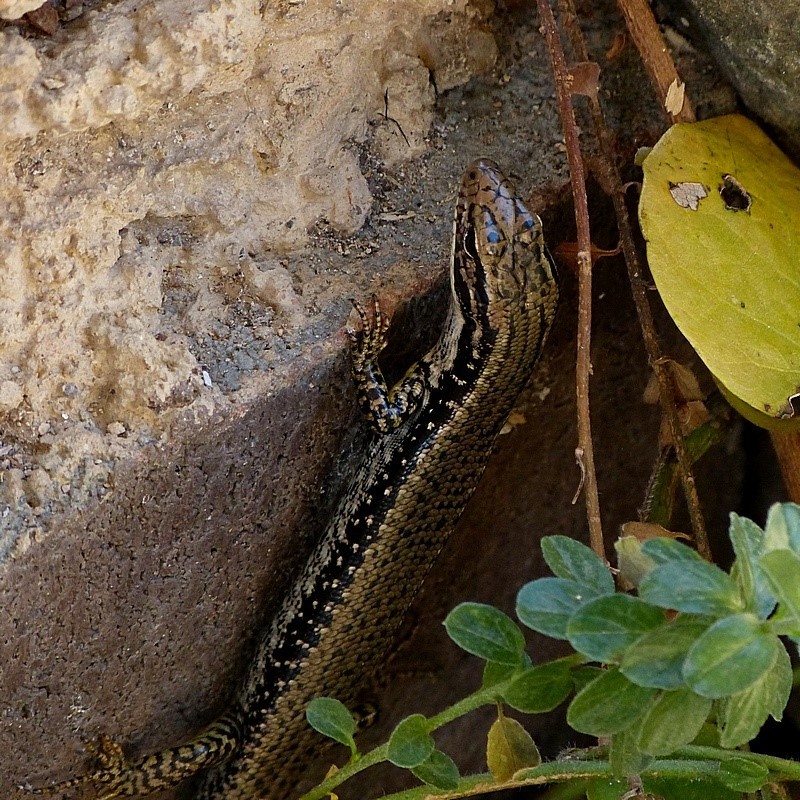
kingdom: Animalia
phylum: Chordata
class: Squamata
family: Scincidae
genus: Eulamprus
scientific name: Eulamprus heatwolei
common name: Warm-temperate water-skink
